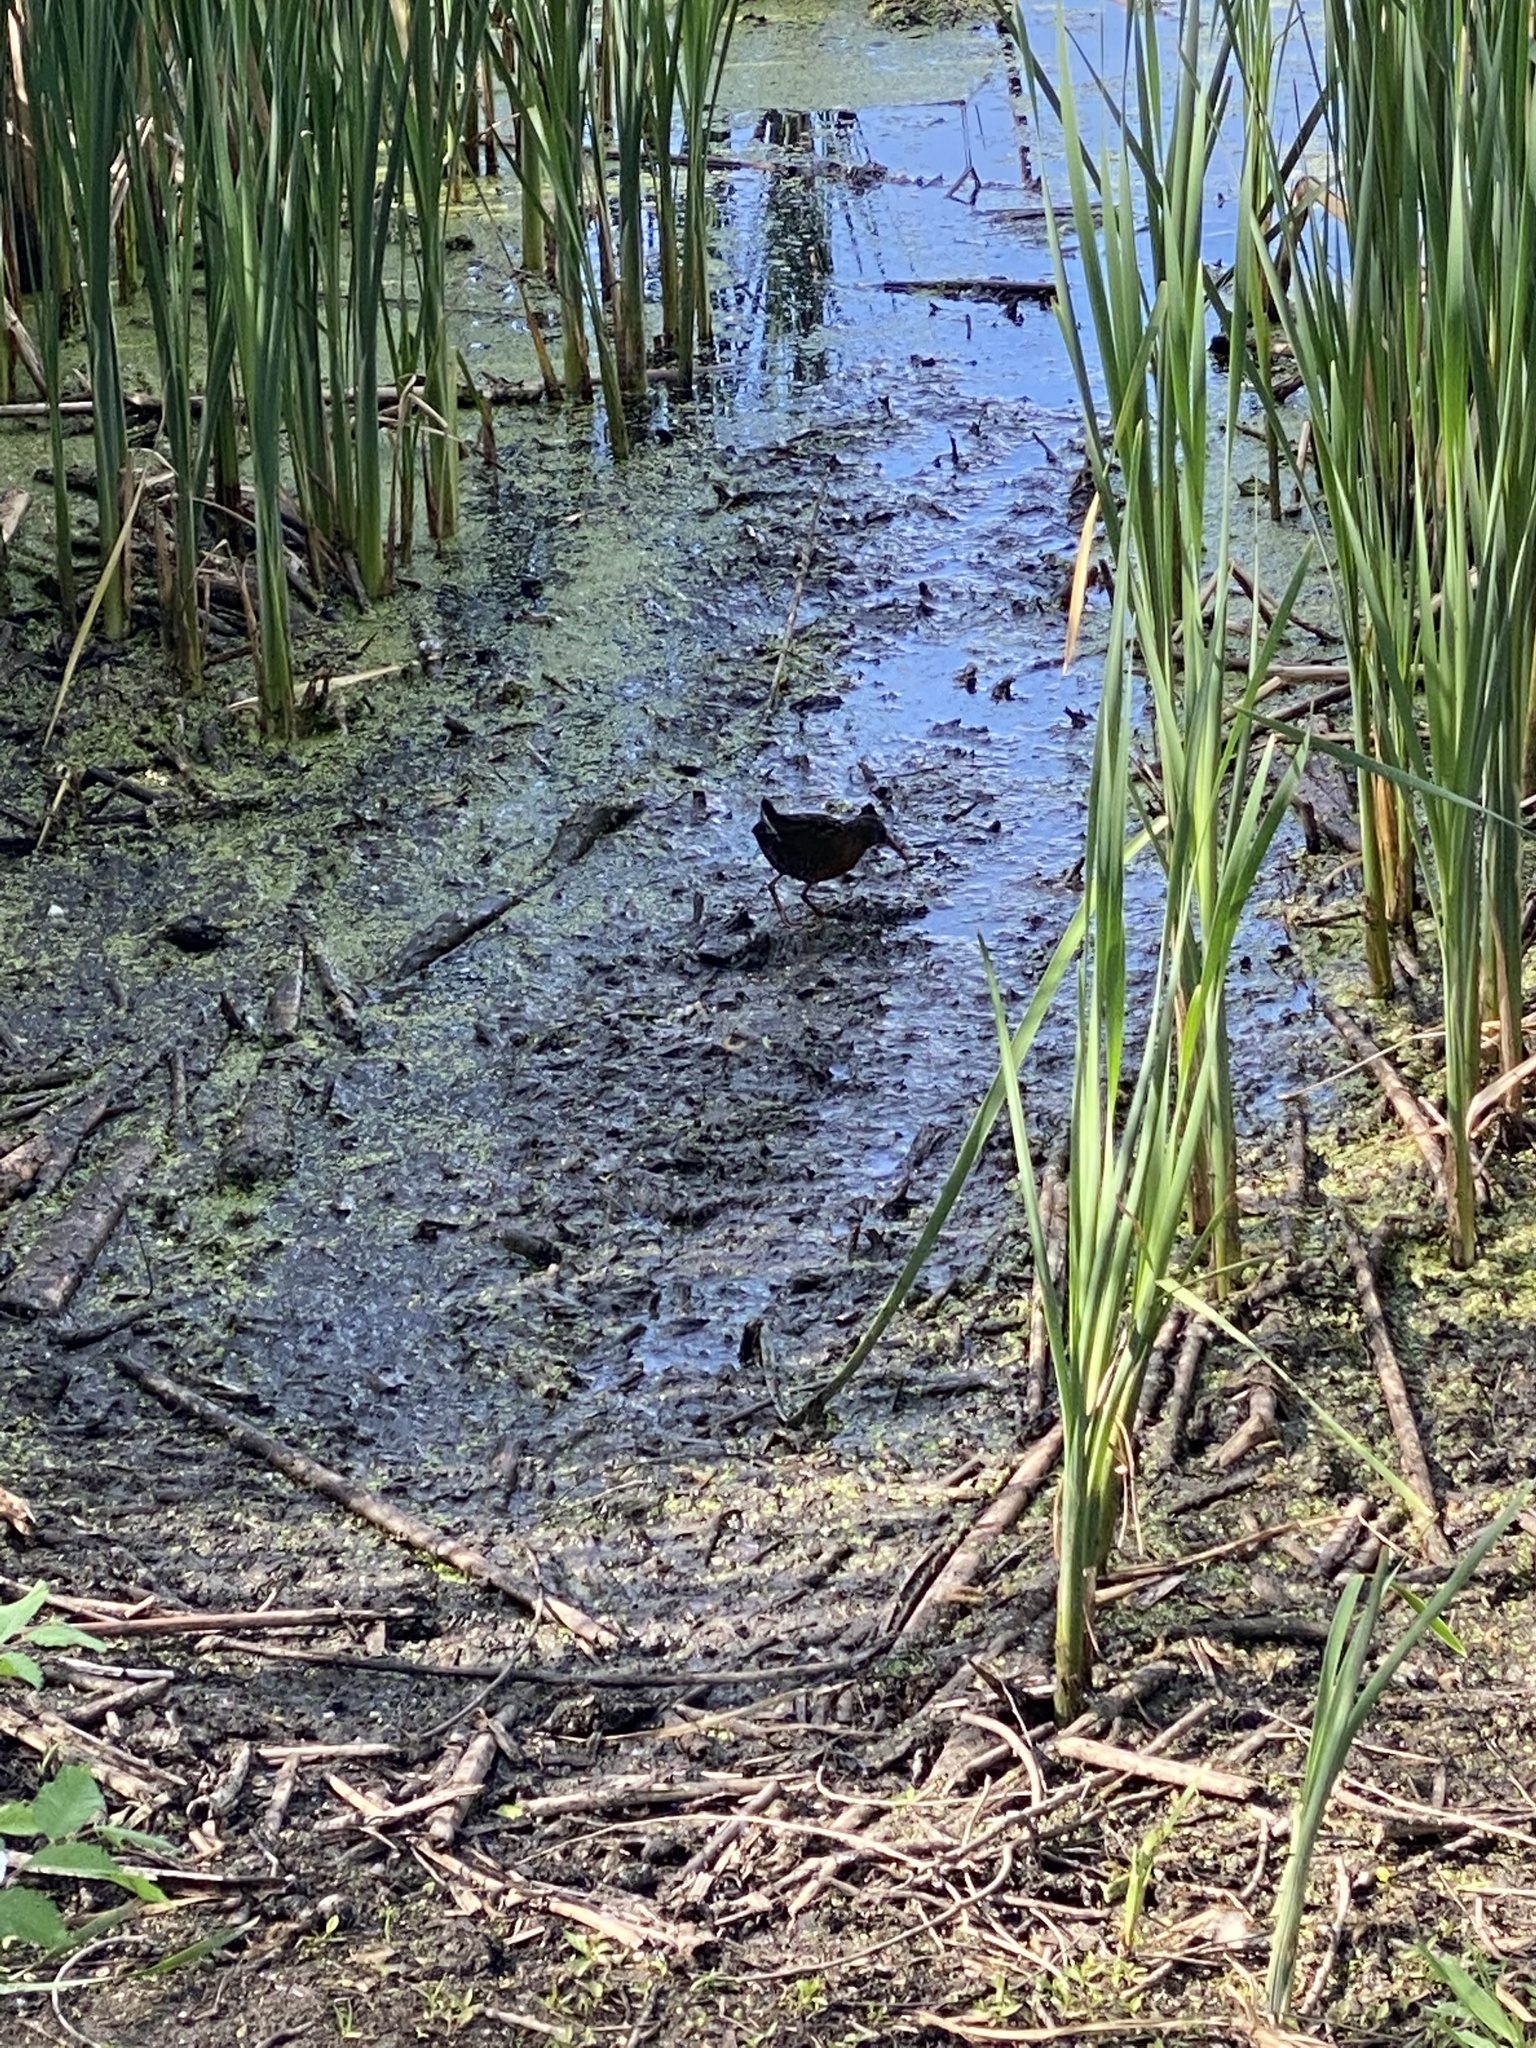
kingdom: Animalia
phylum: Chordata
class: Aves
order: Gruiformes
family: Rallidae
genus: Rallus
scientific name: Rallus limicola
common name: Virginia rail
